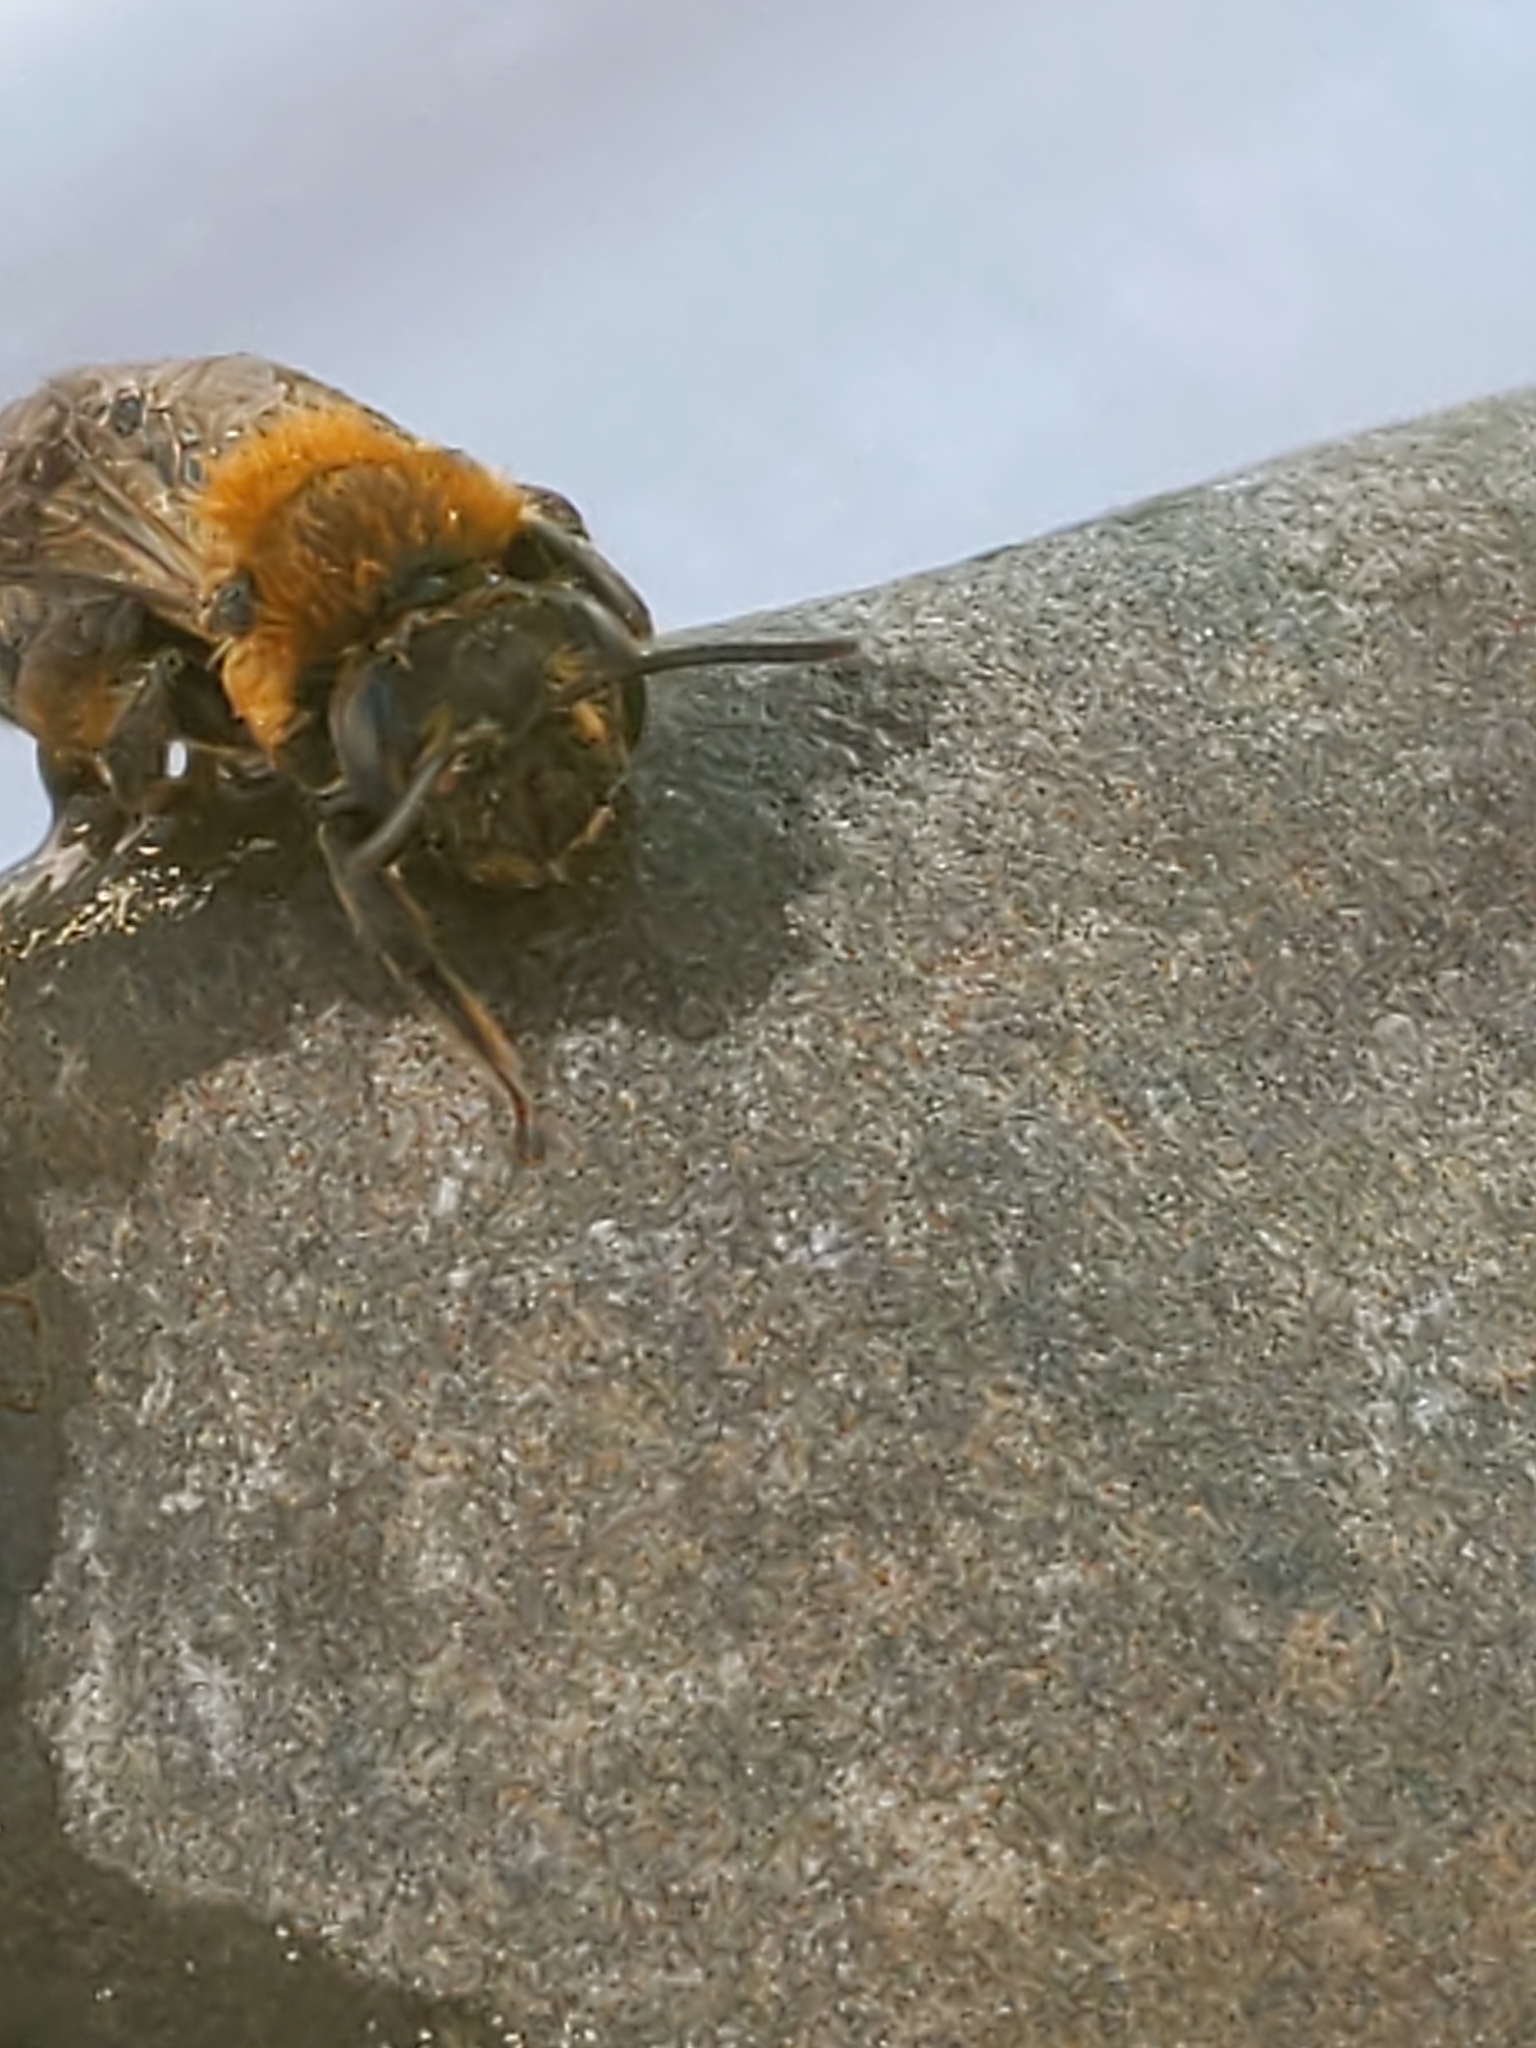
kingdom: Animalia
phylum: Arthropoda
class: Insecta
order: Hymenoptera
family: Andrenidae
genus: Andrena
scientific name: Andrena dunningi
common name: Dunning's miner
